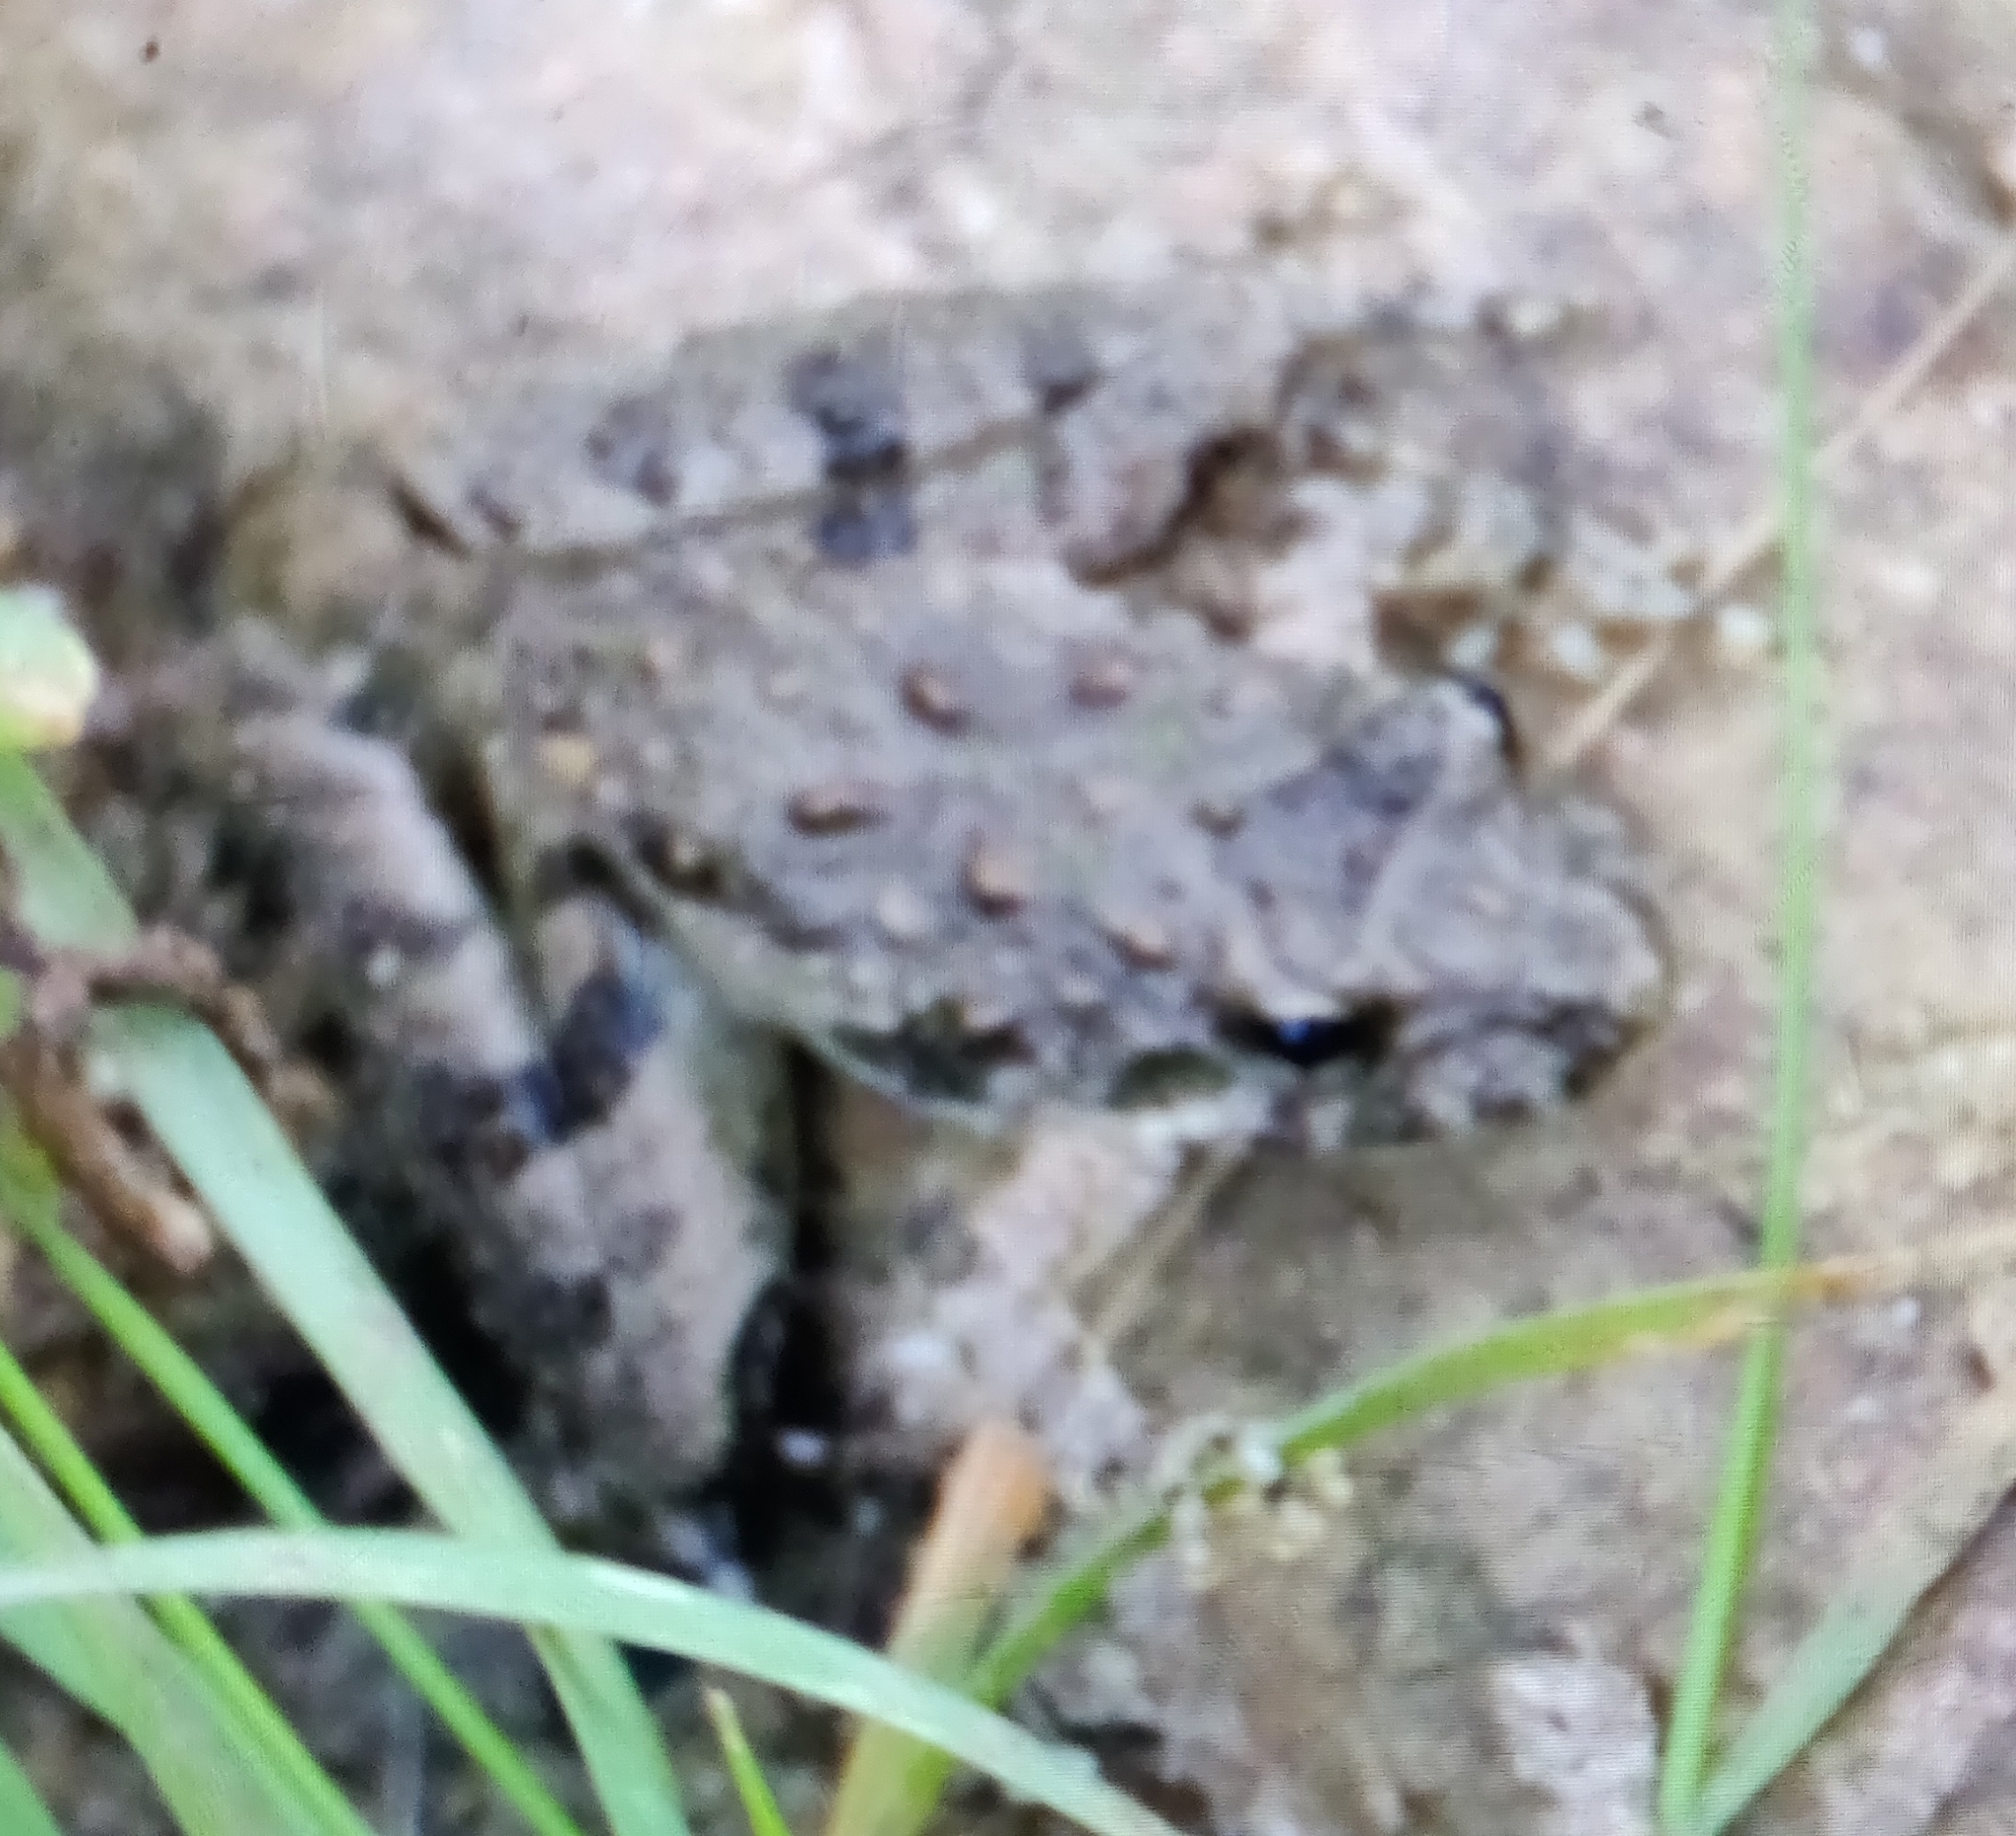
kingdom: Animalia
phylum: Chordata
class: Amphibia
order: Anura
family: Hylidae
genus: Acris
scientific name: Acris blanchardi
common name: Blanchard's cricket frog
